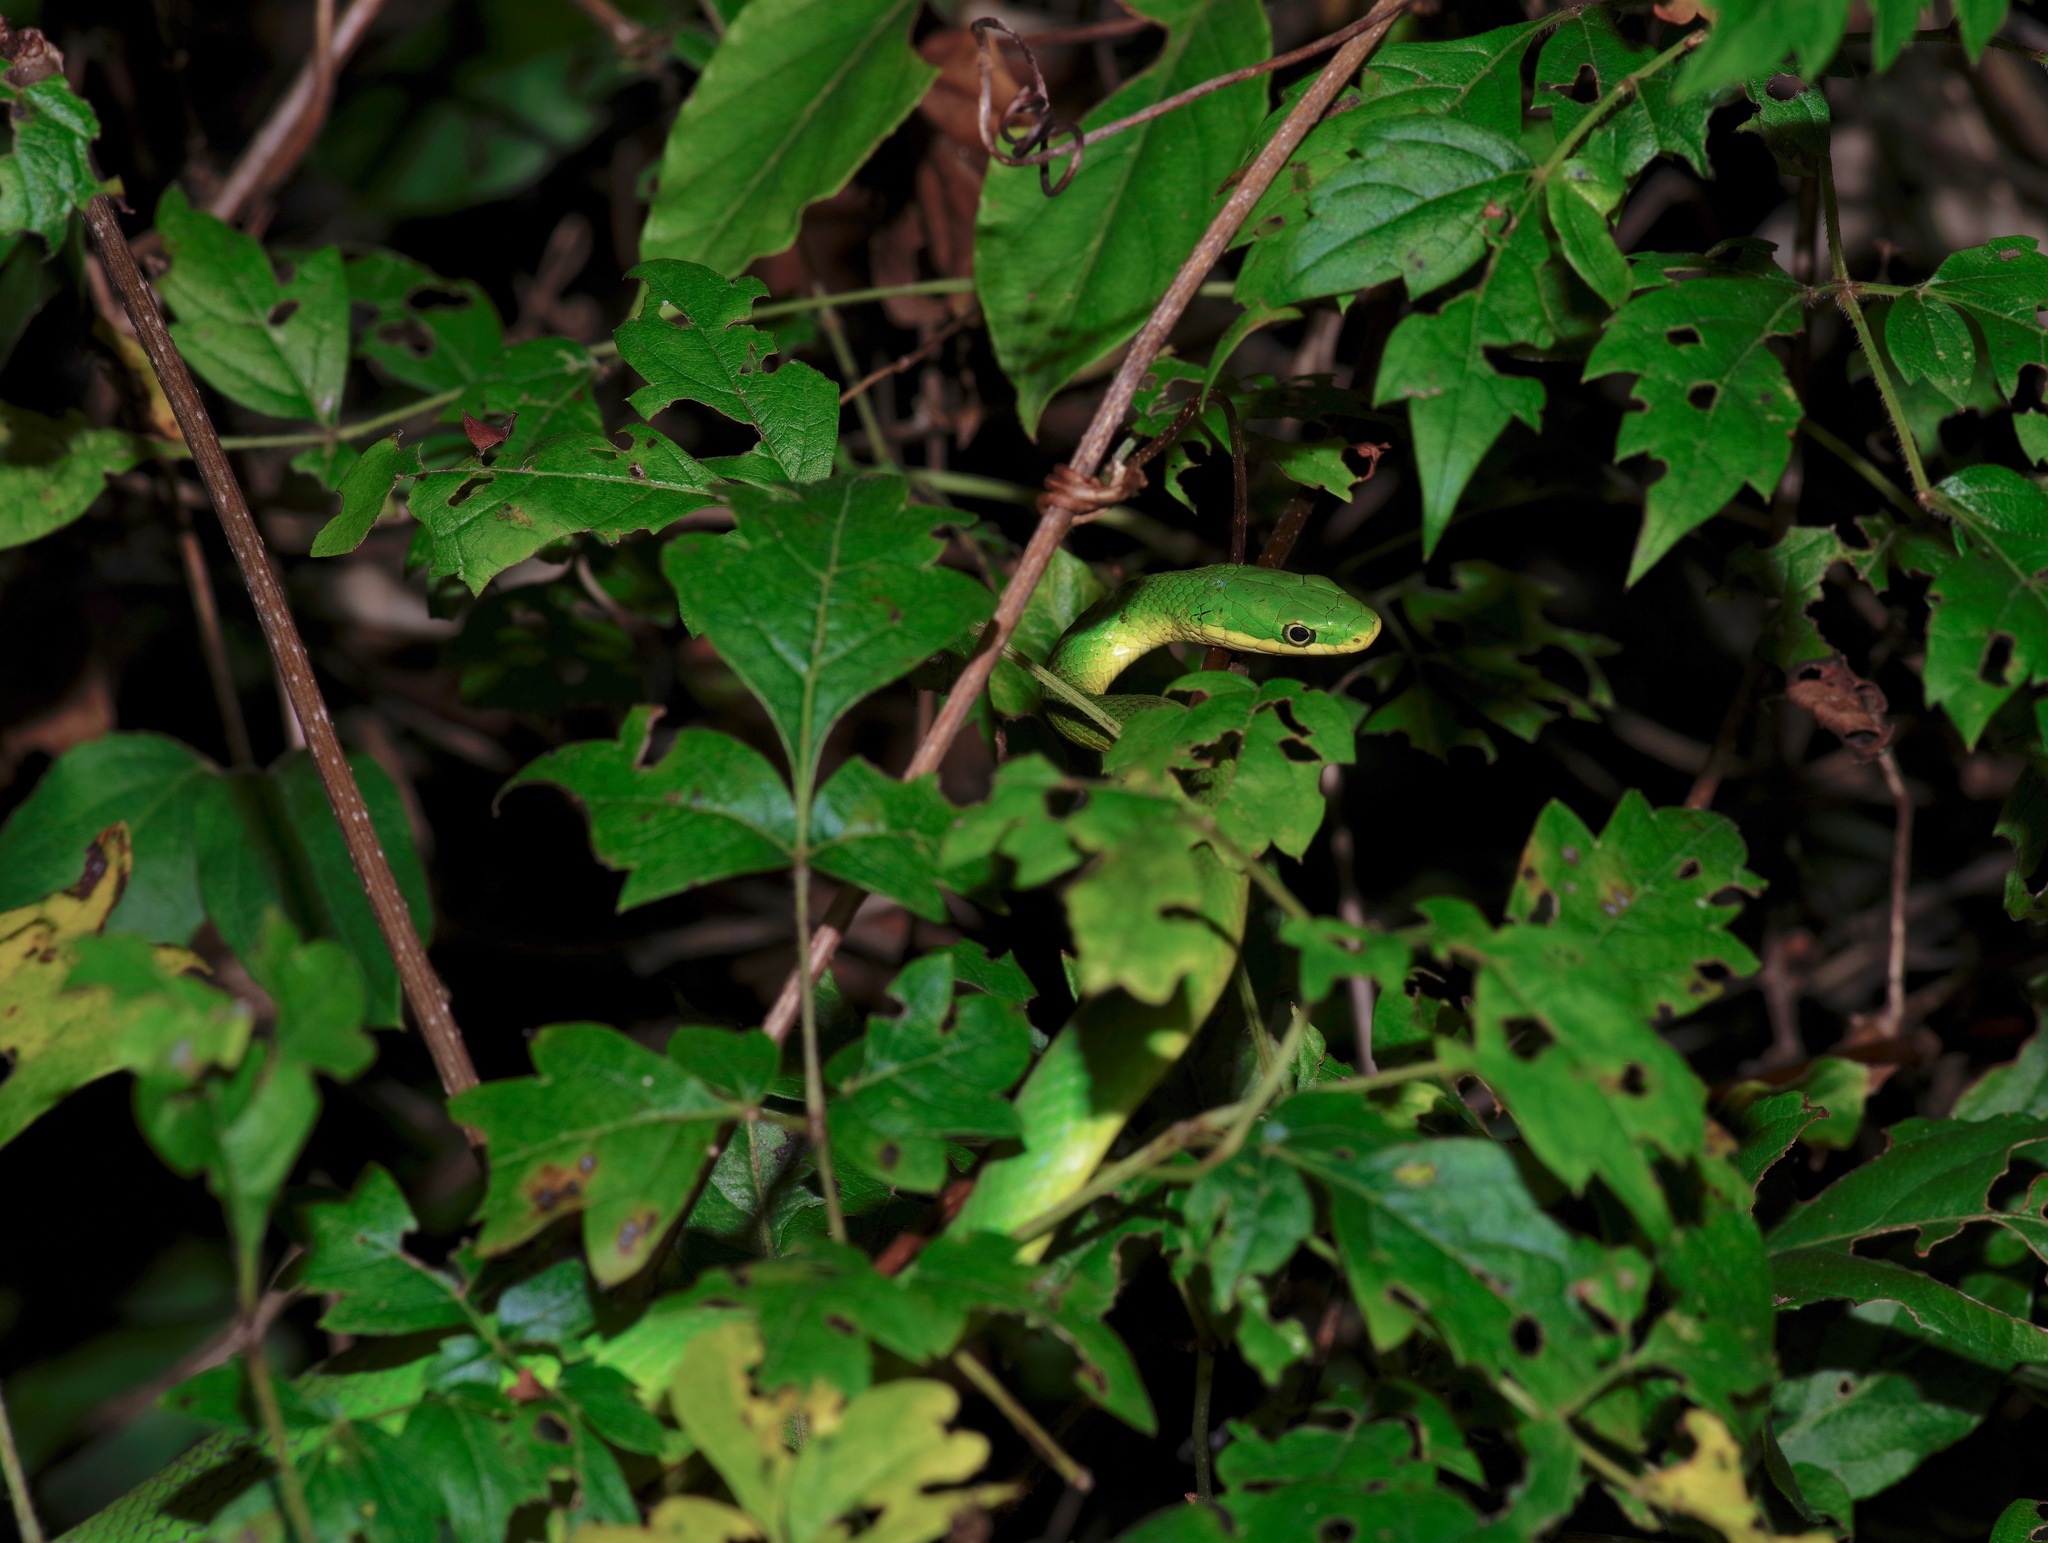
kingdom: Animalia
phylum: Chordata
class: Squamata
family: Colubridae
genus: Opheodrys
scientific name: Opheodrys aestivus
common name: Rough greensnake
